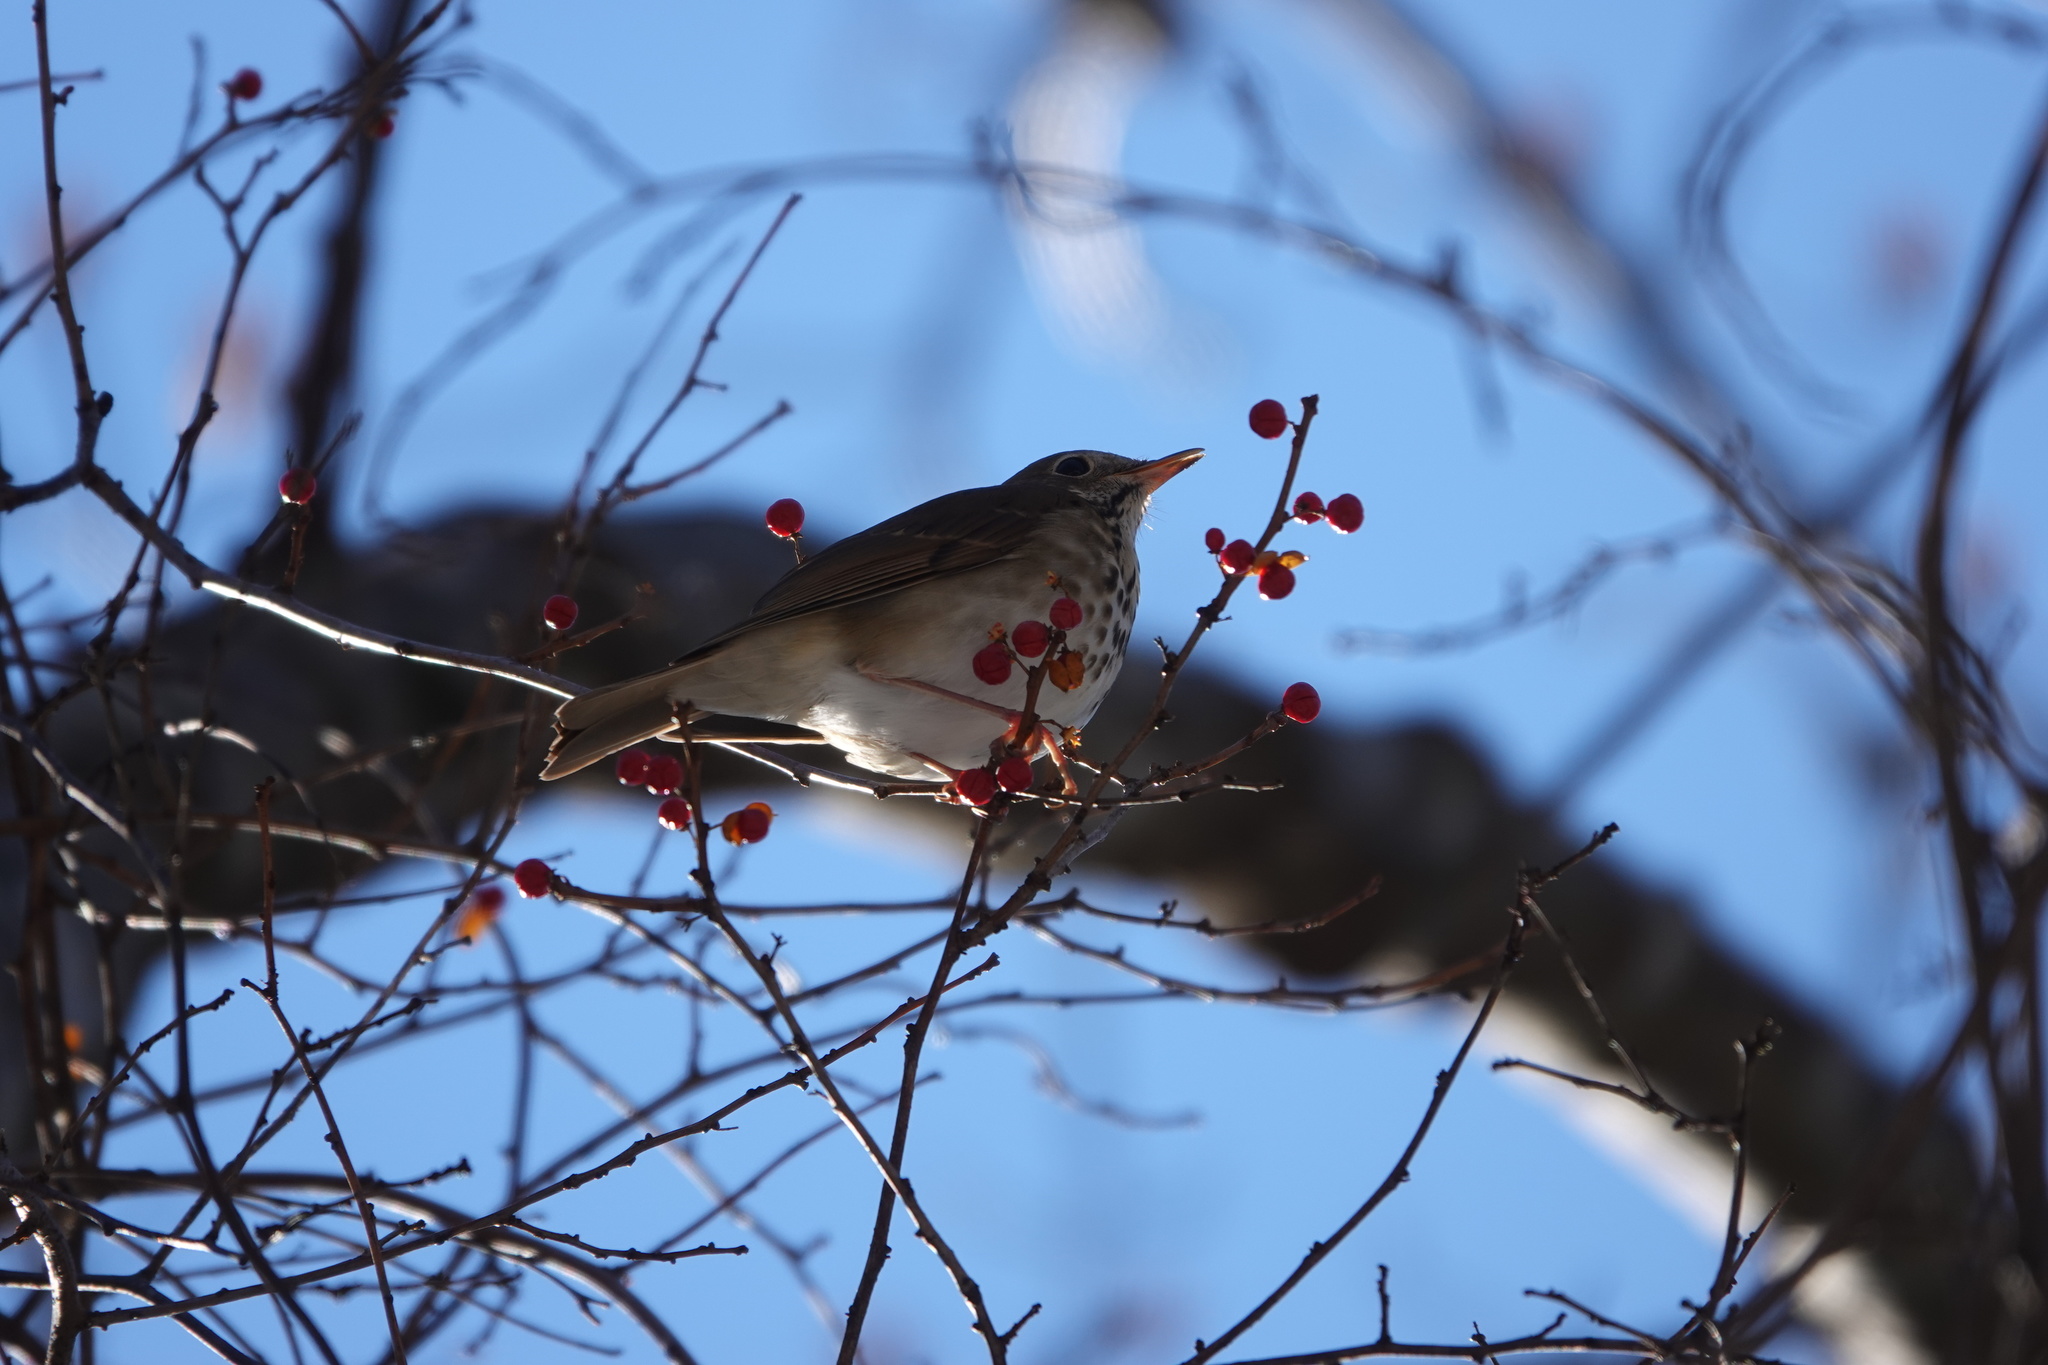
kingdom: Animalia
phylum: Chordata
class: Aves
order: Passeriformes
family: Turdidae
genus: Catharus
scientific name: Catharus guttatus
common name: Hermit thrush
